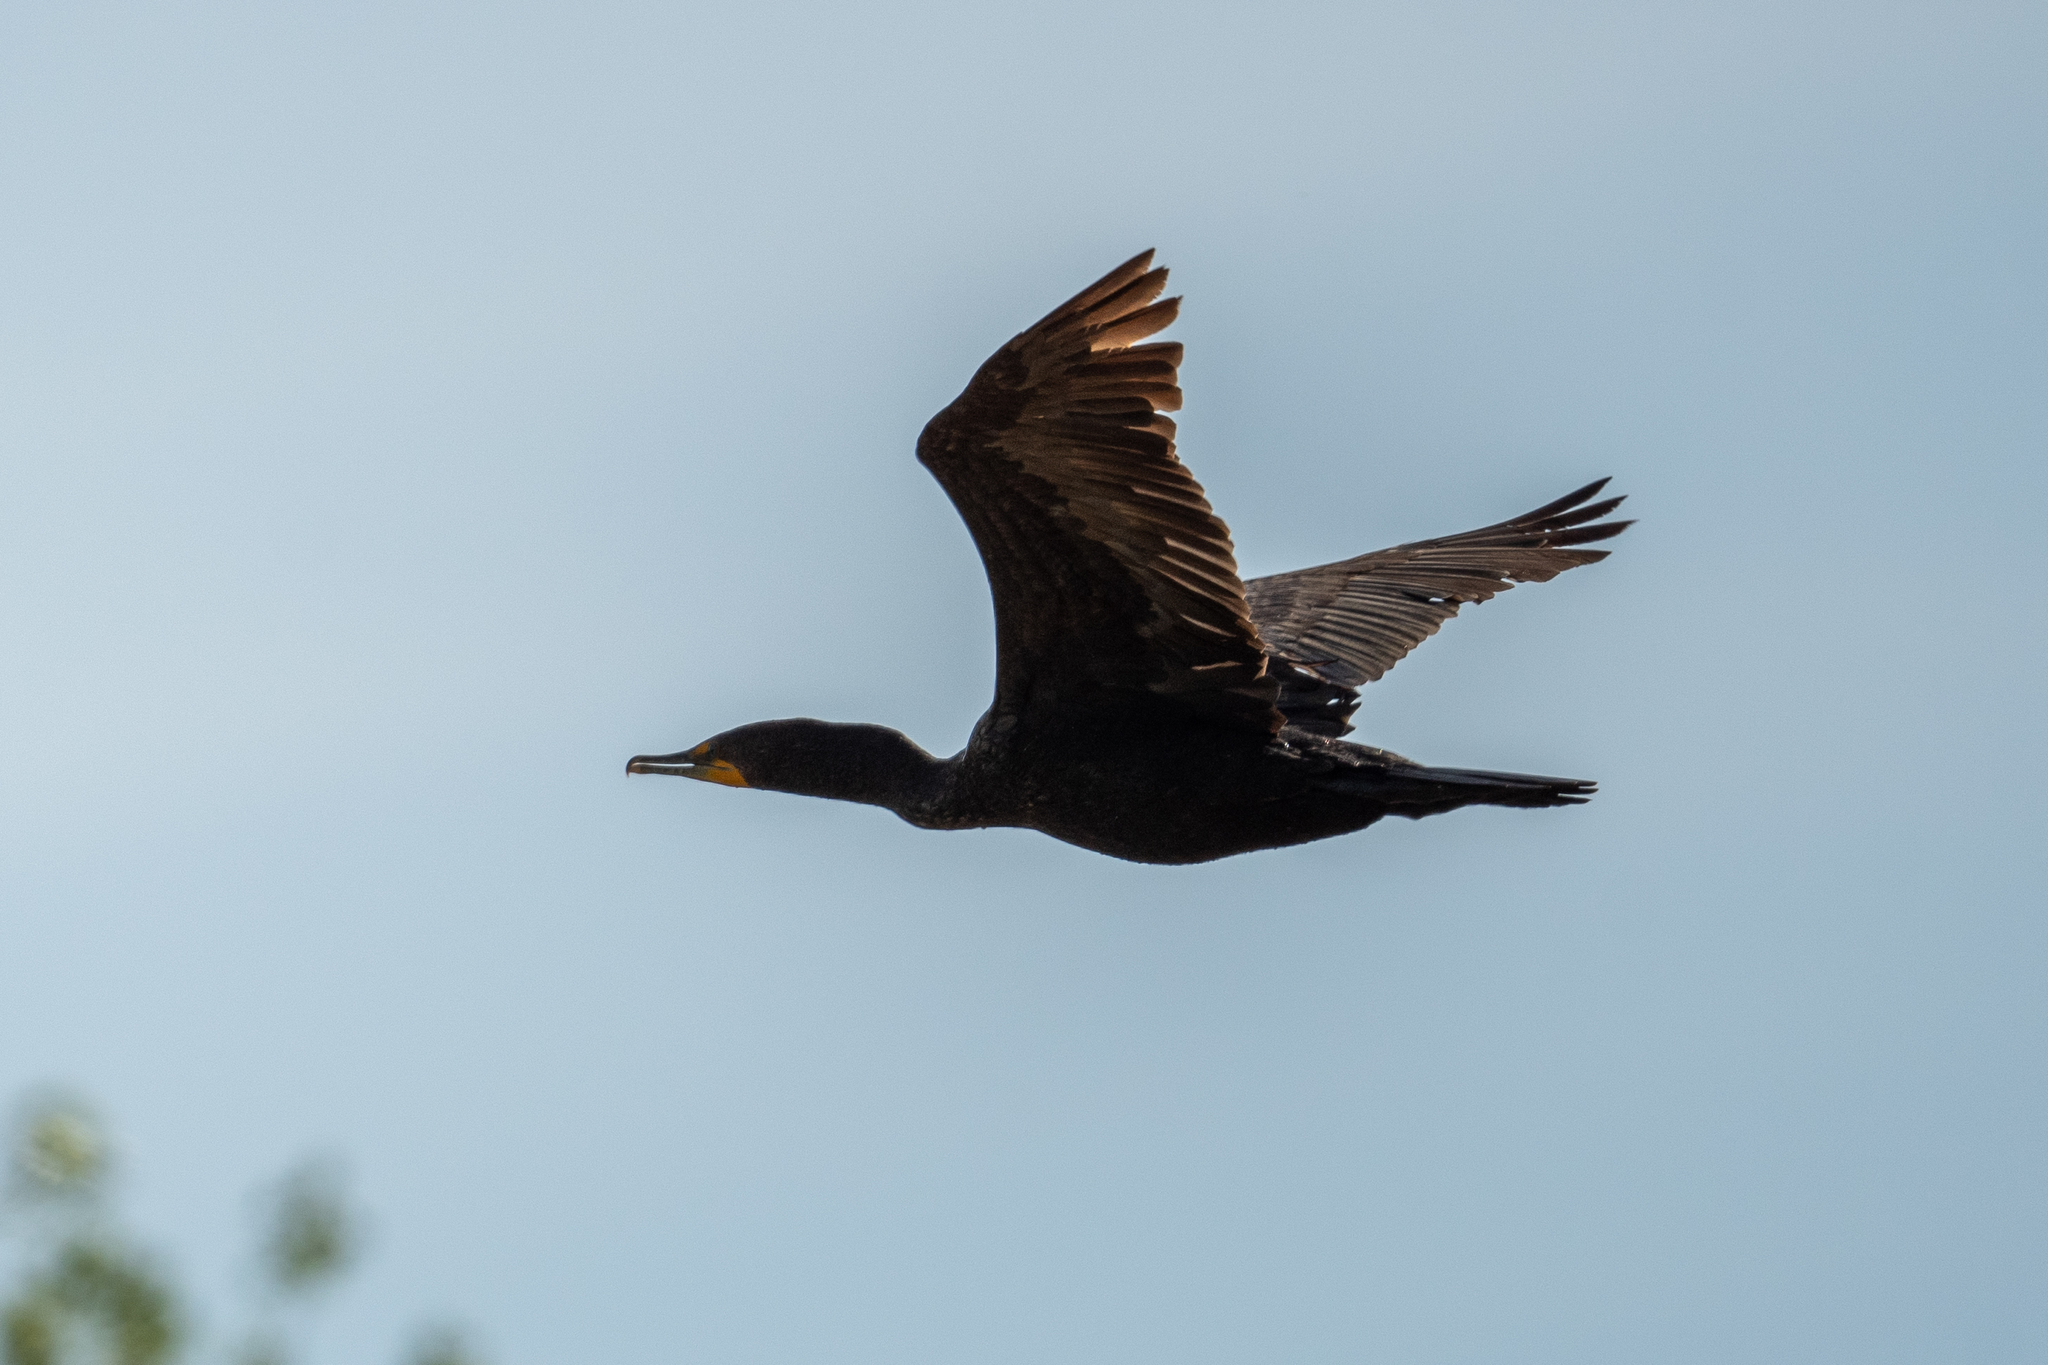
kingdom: Animalia
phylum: Chordata
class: Aves
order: Suliformes
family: Phalacrocoracidae
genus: Phalacrocorax
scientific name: Phalacrocorax auritus
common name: Double-crested cormorant
